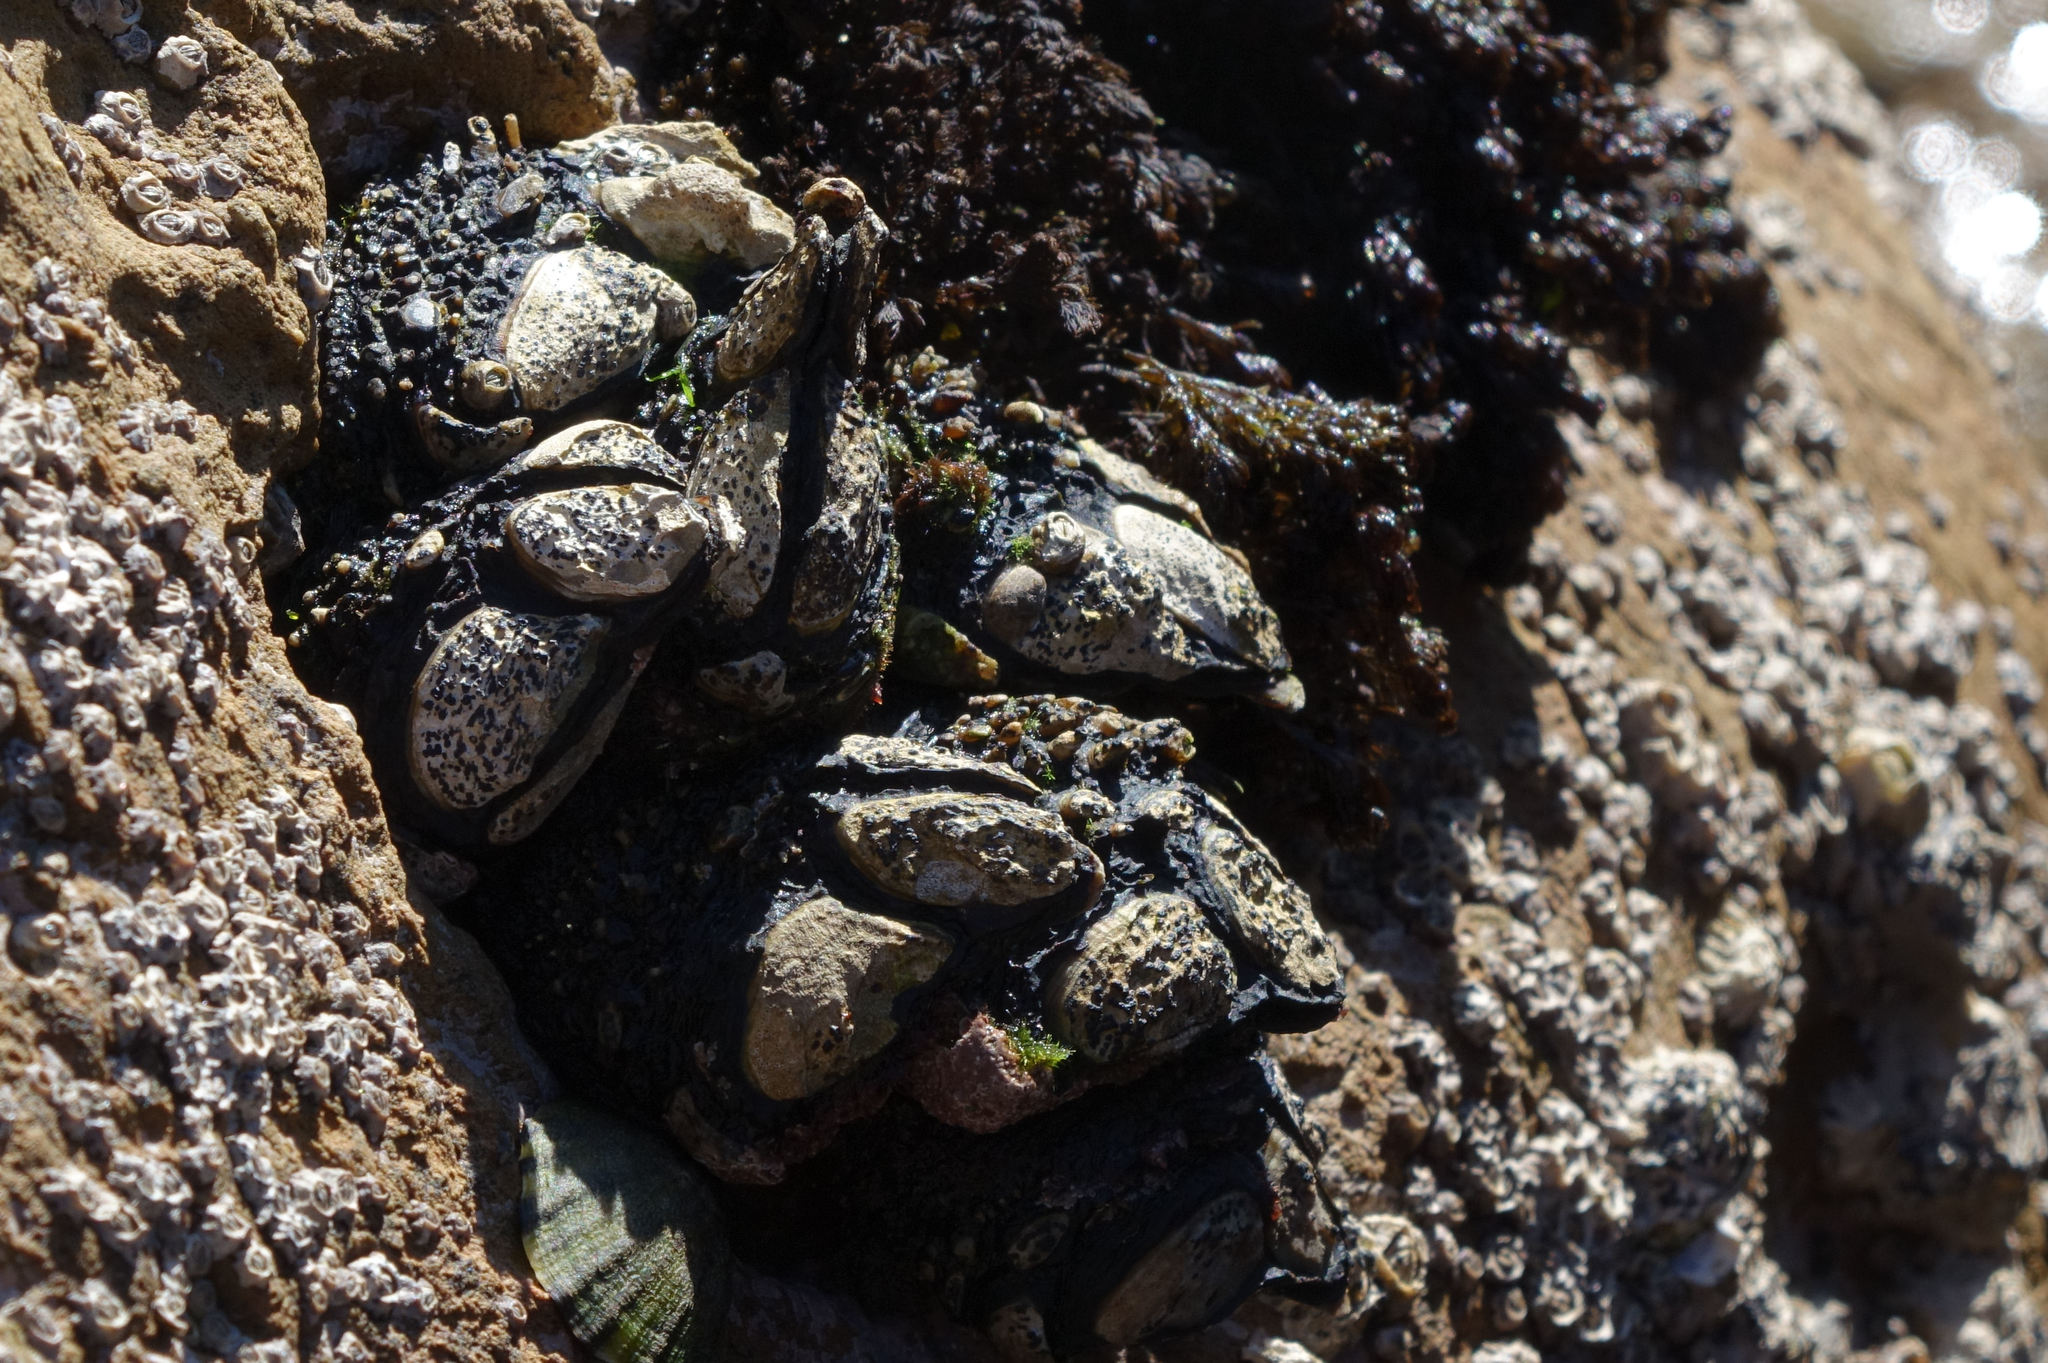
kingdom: Animalia
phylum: Arthropoda
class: Maxillopoda
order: Pedunculata
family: Calanticidae
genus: Calantica
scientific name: Calantica spinosa
